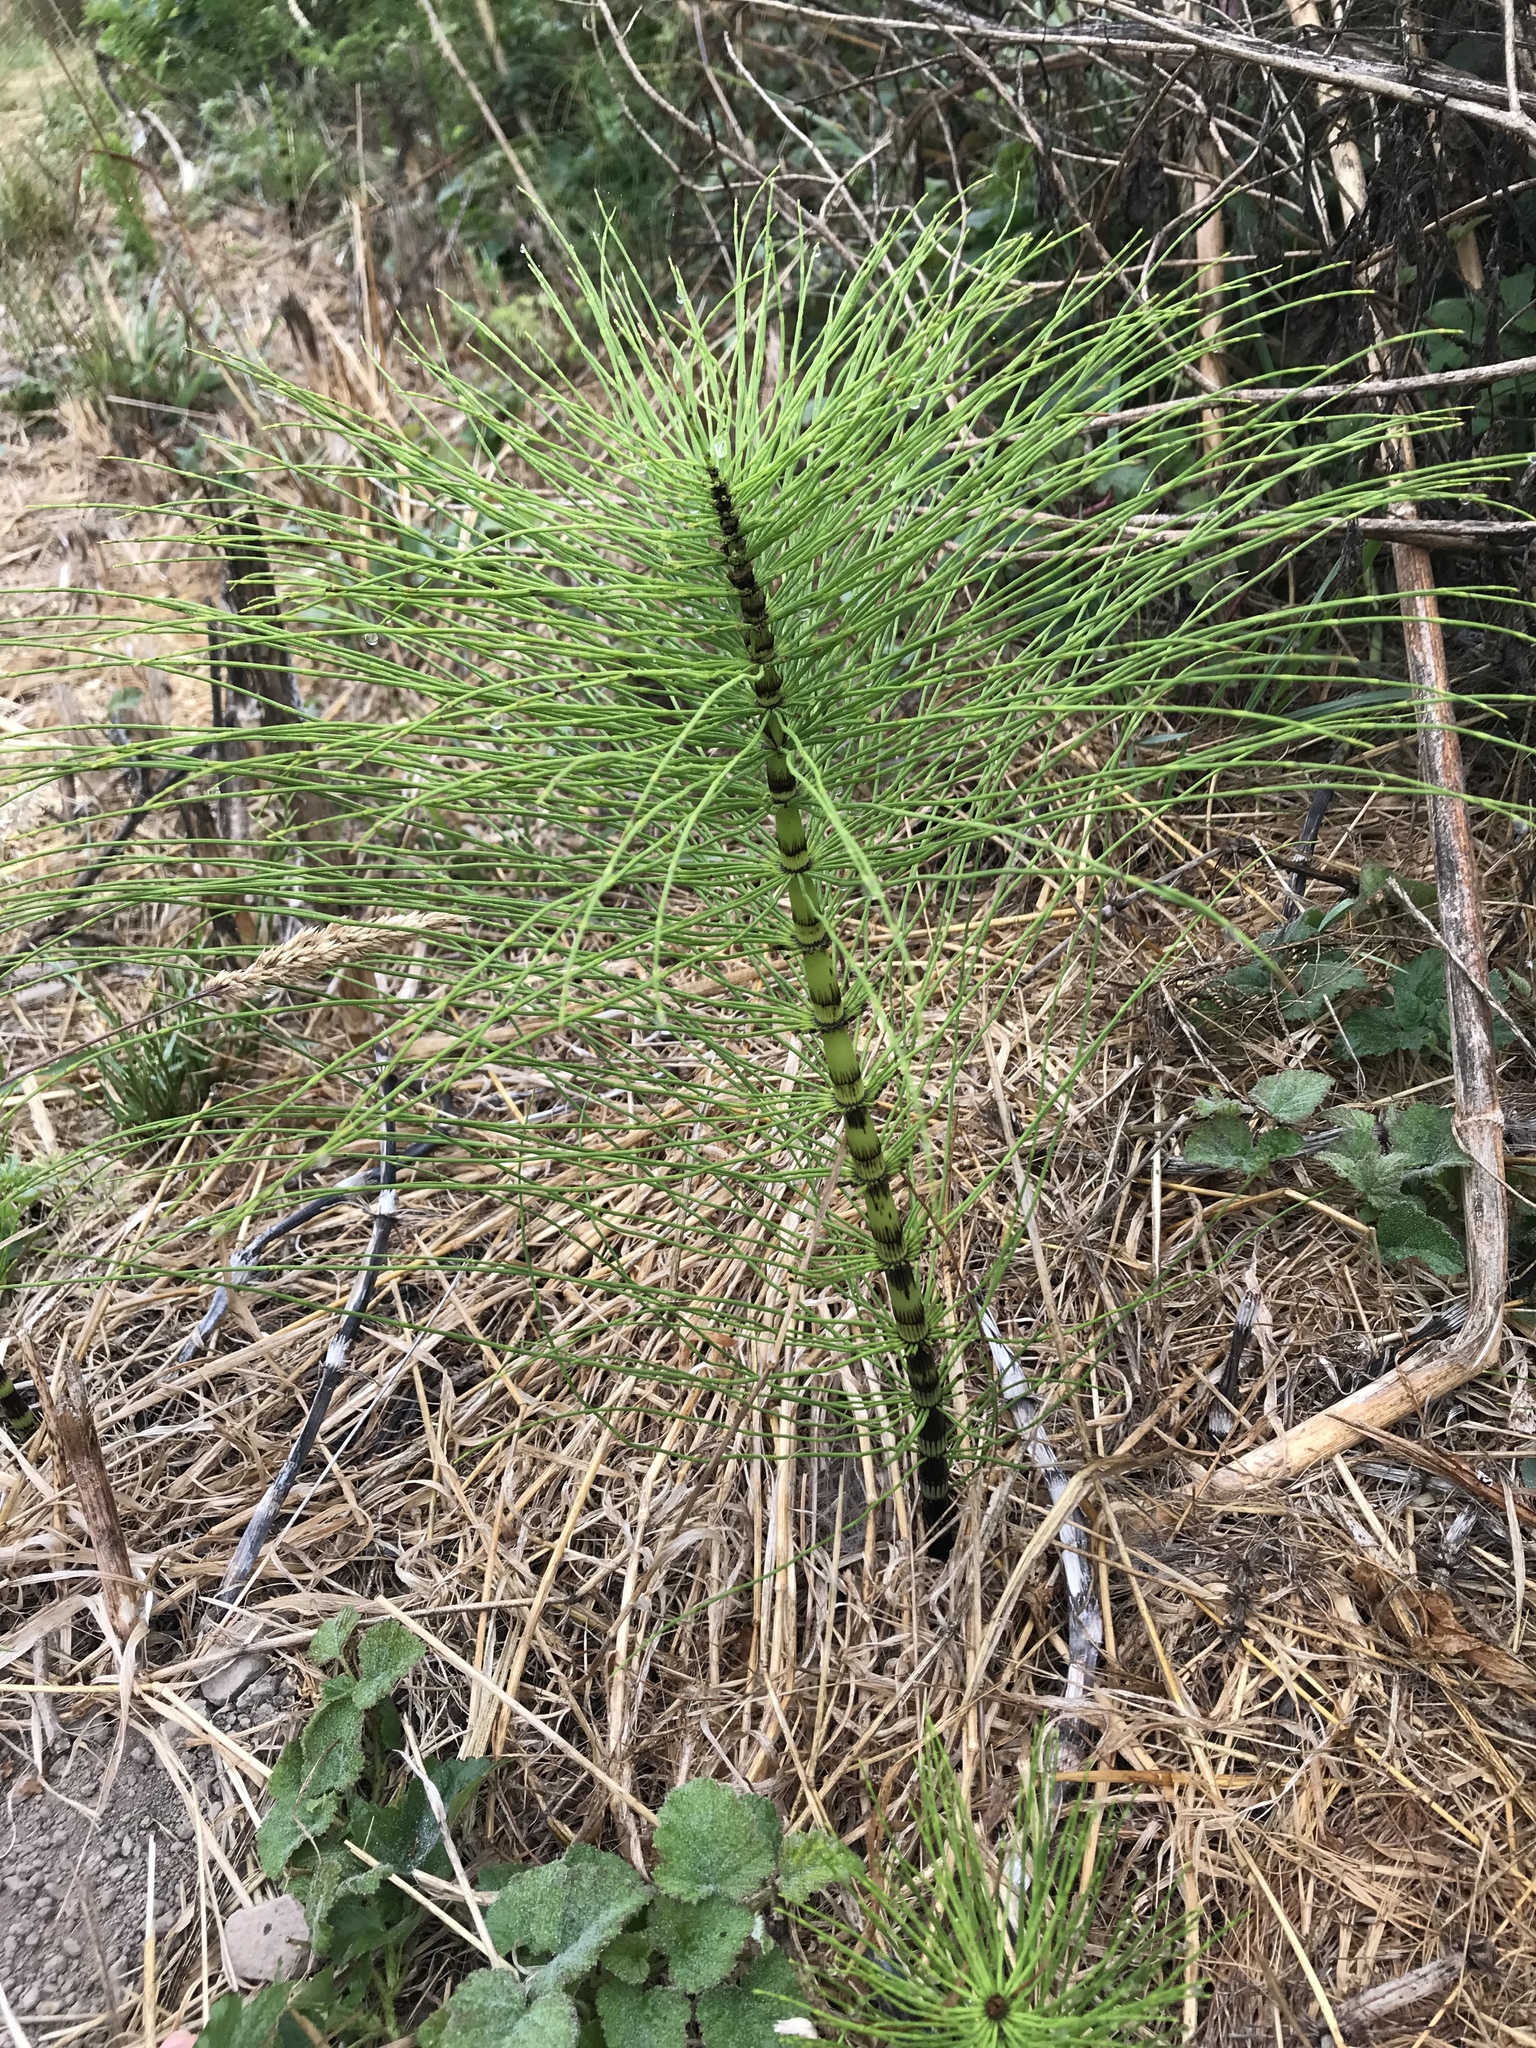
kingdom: Plantae
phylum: Tracheophyta
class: Polypodiopsida
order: Equisetales
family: Equisetaceae
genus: Equisetum
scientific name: Equisetum telmateia
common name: Great horsetail
